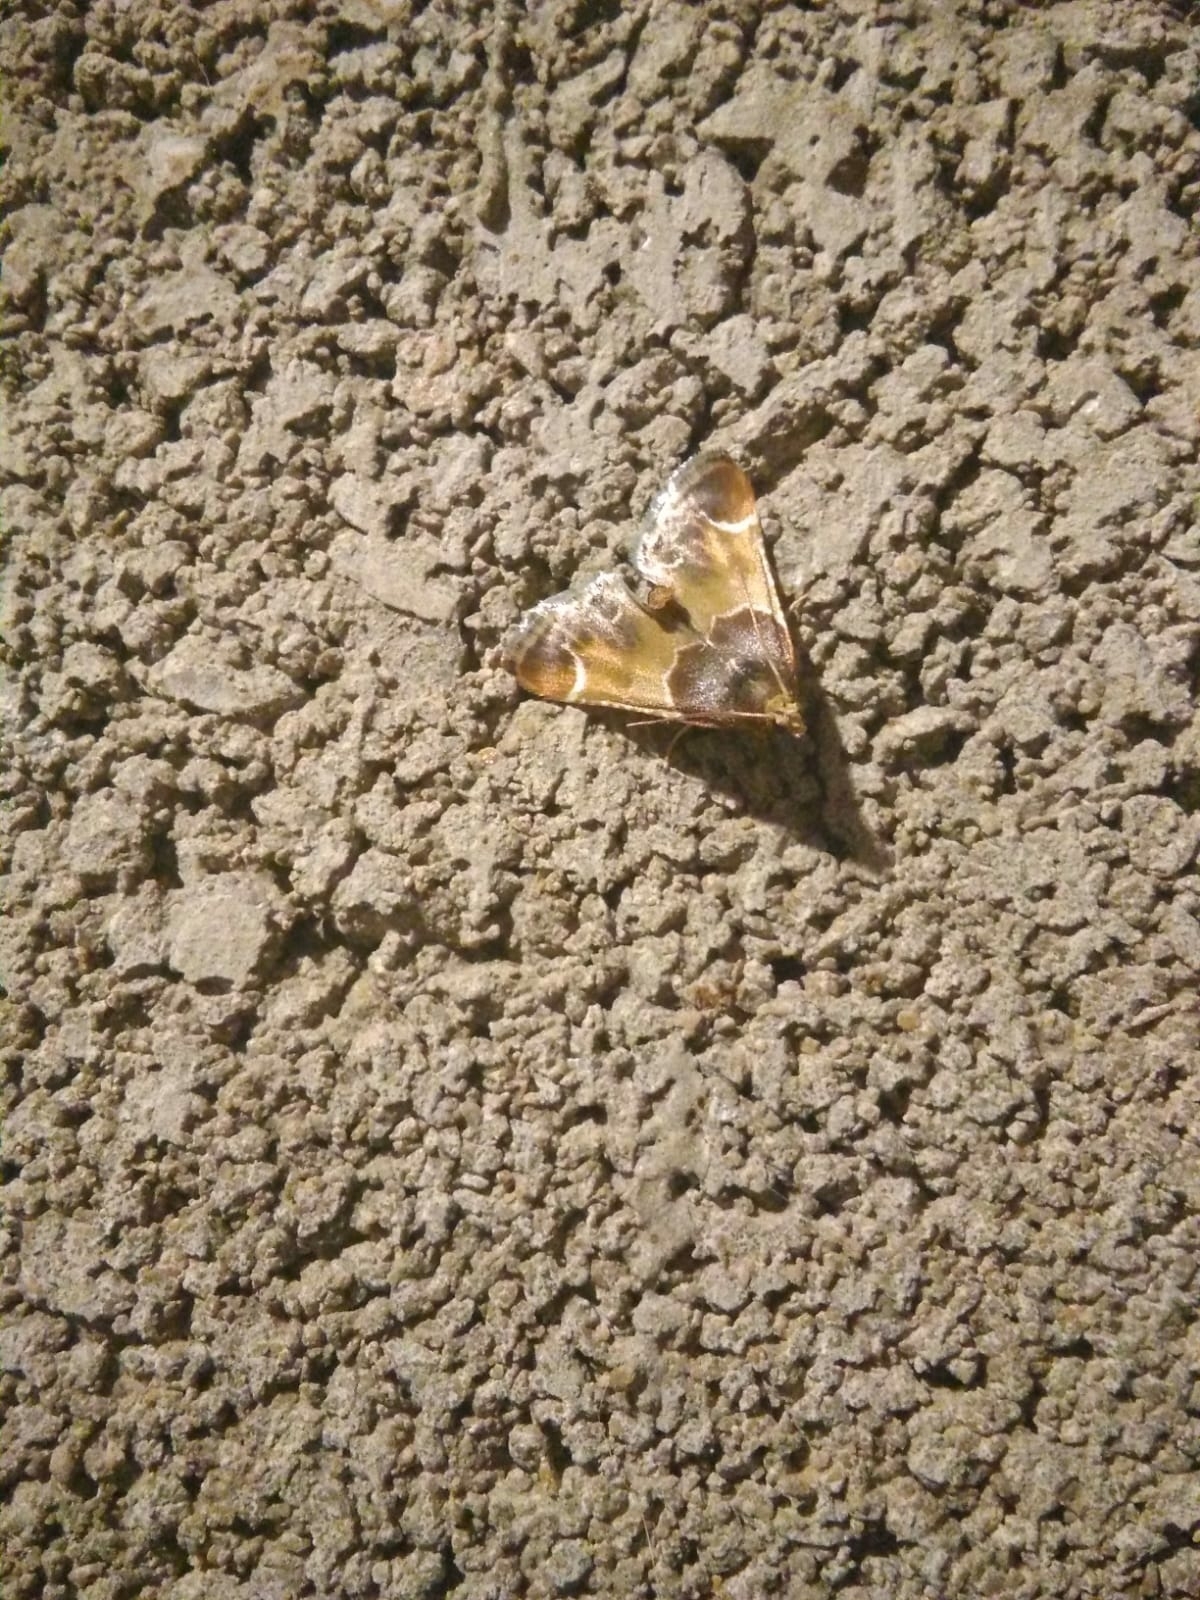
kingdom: Animalia
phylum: Arthropoda
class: Insecta
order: Lepidoptera
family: Pyralidae
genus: Pyralis
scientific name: Pyralis farinalis
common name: Meal moth
